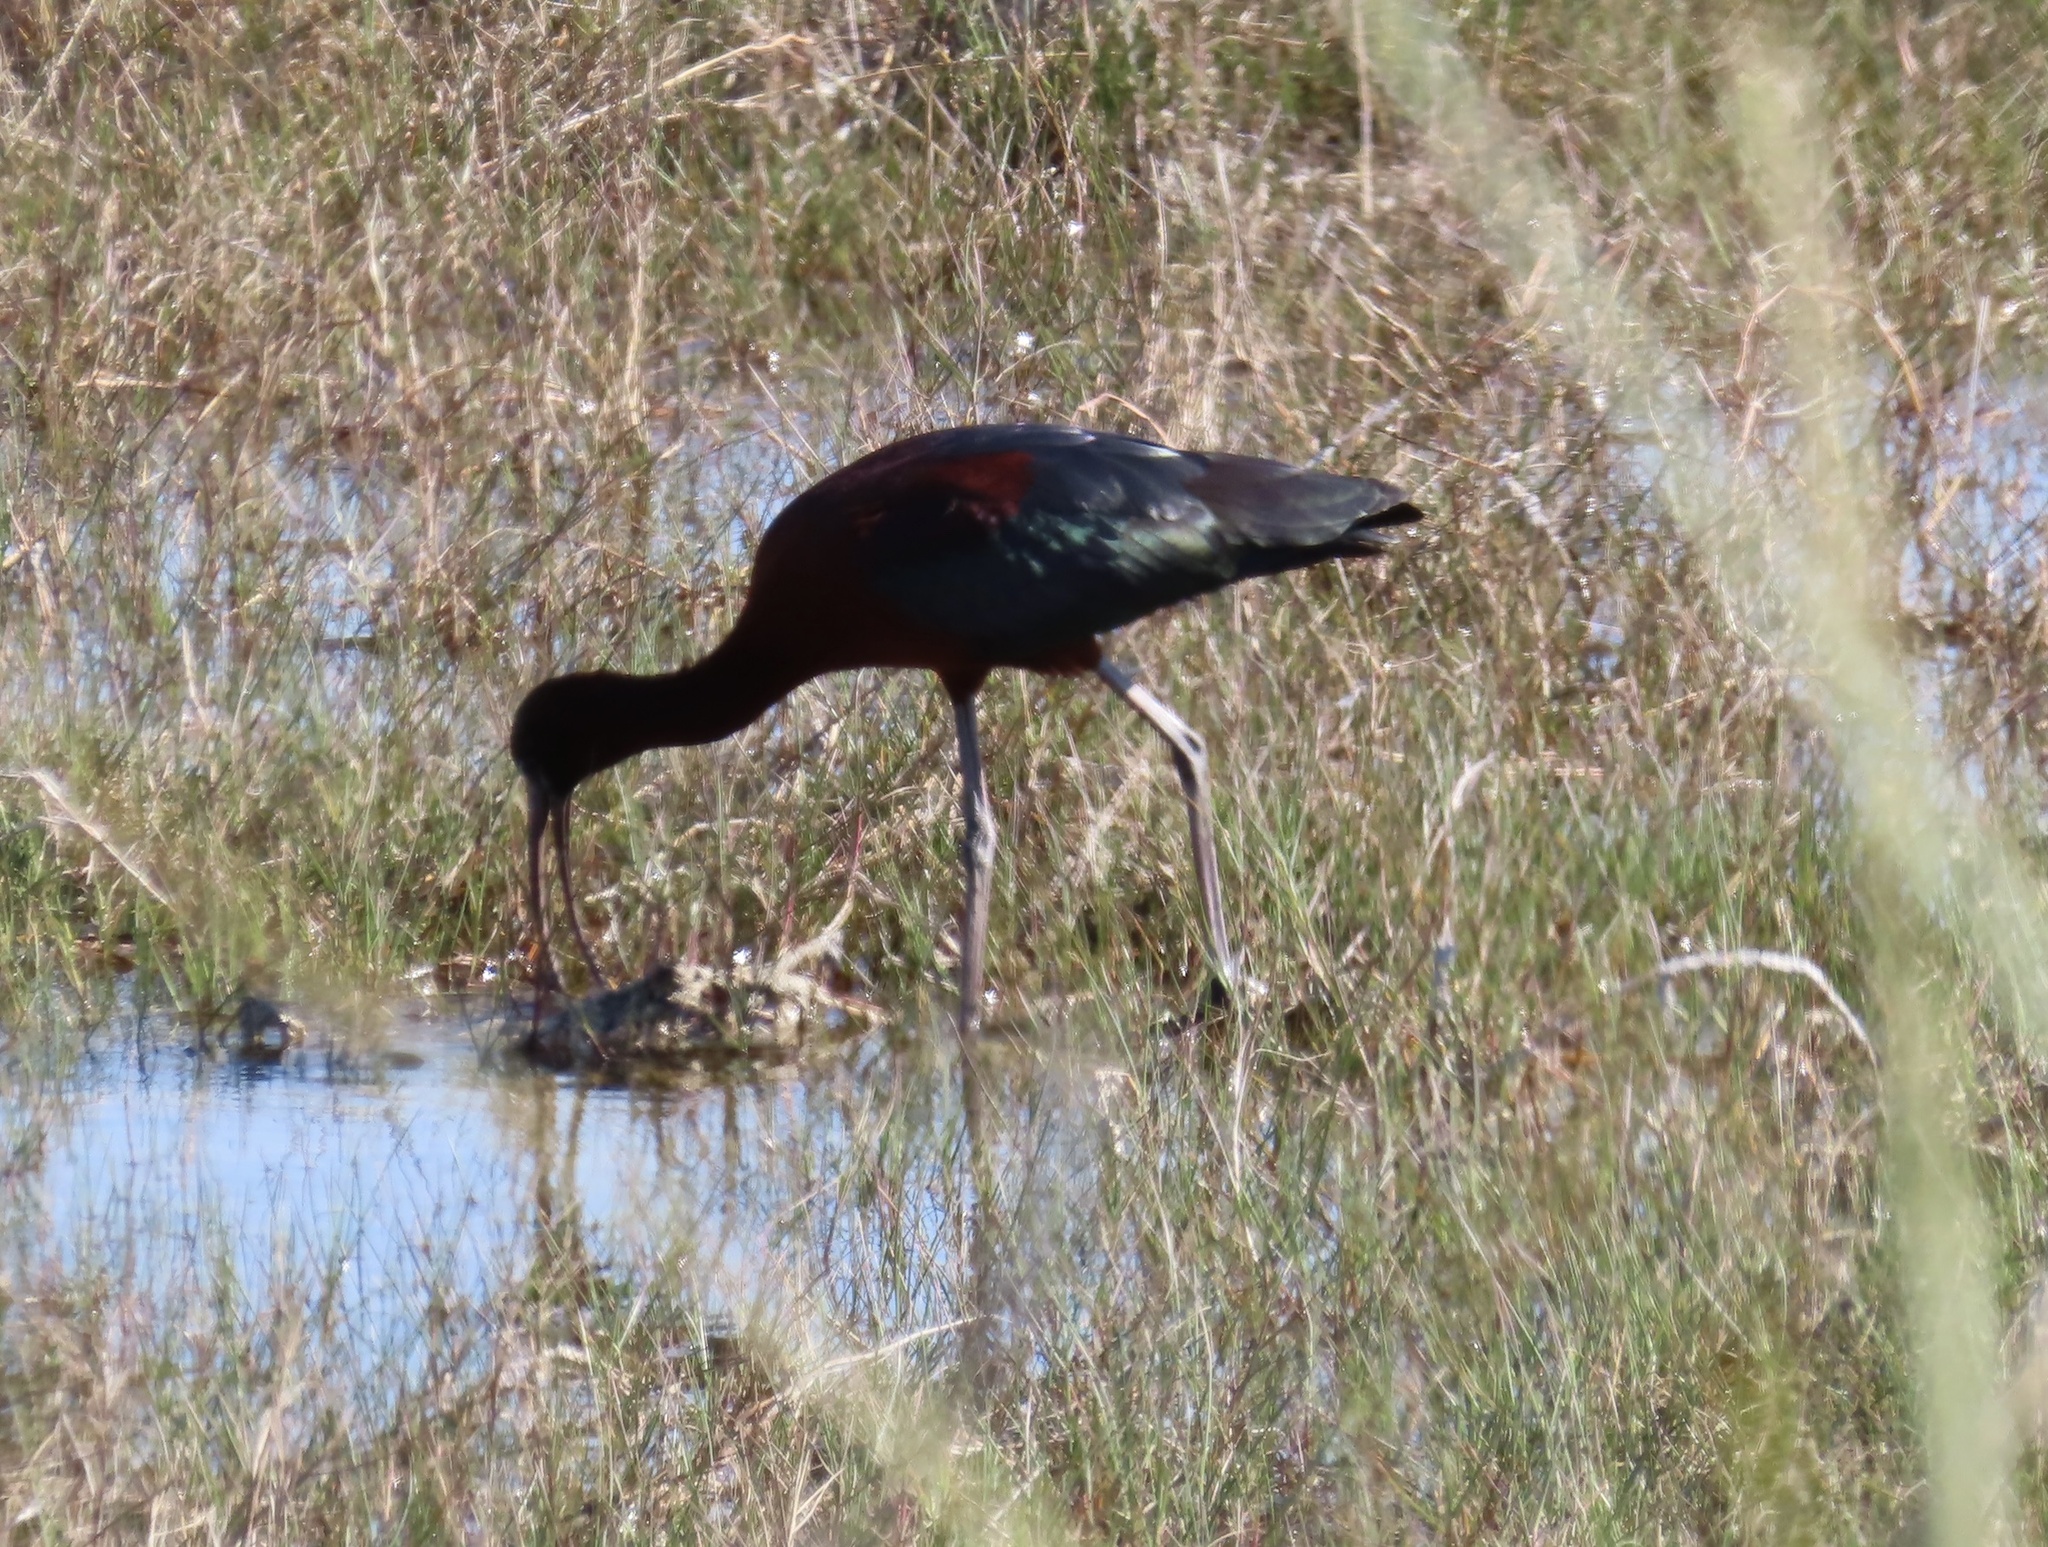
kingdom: Animalia
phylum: Chordata
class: Aves
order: Pelecaniformes
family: Threskiornithidae
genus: Plegadis
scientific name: Plegadis falcinellus
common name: Glossy ibis
